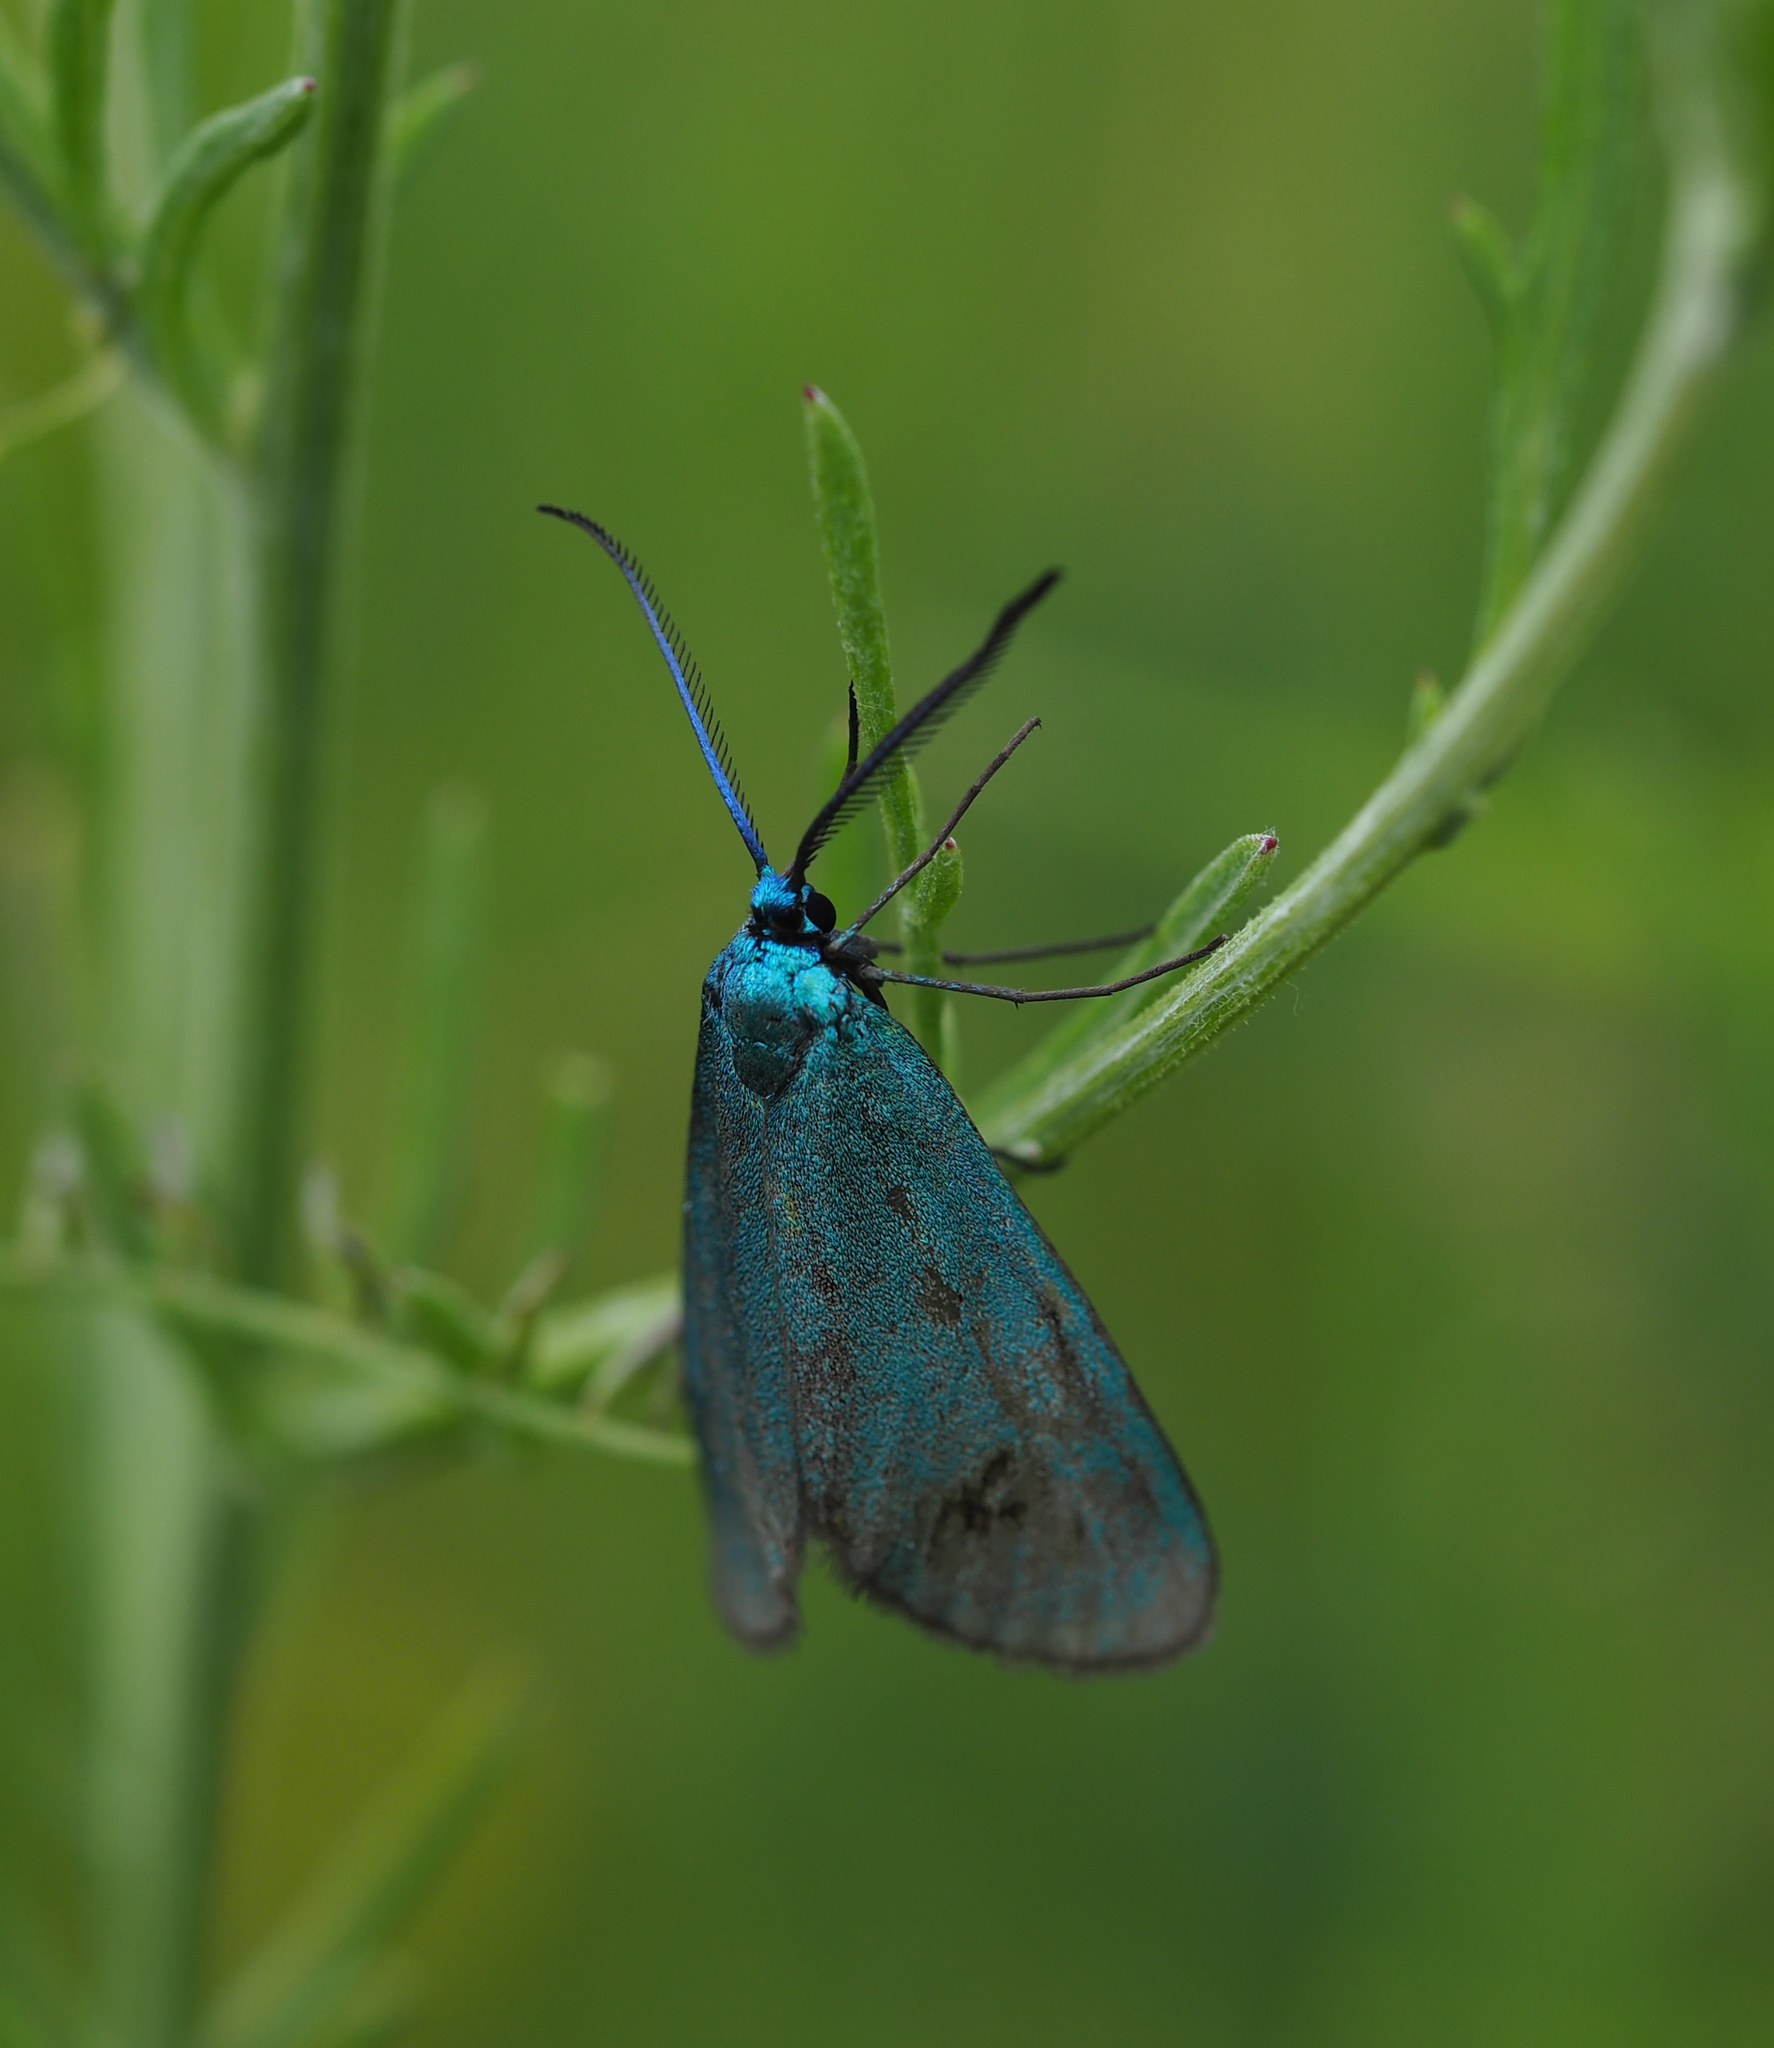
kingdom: Animalia
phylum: Arthropoda
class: Insecta
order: Lepidoptera
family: Zygaenidae
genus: Jordanita
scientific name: Jordanita
